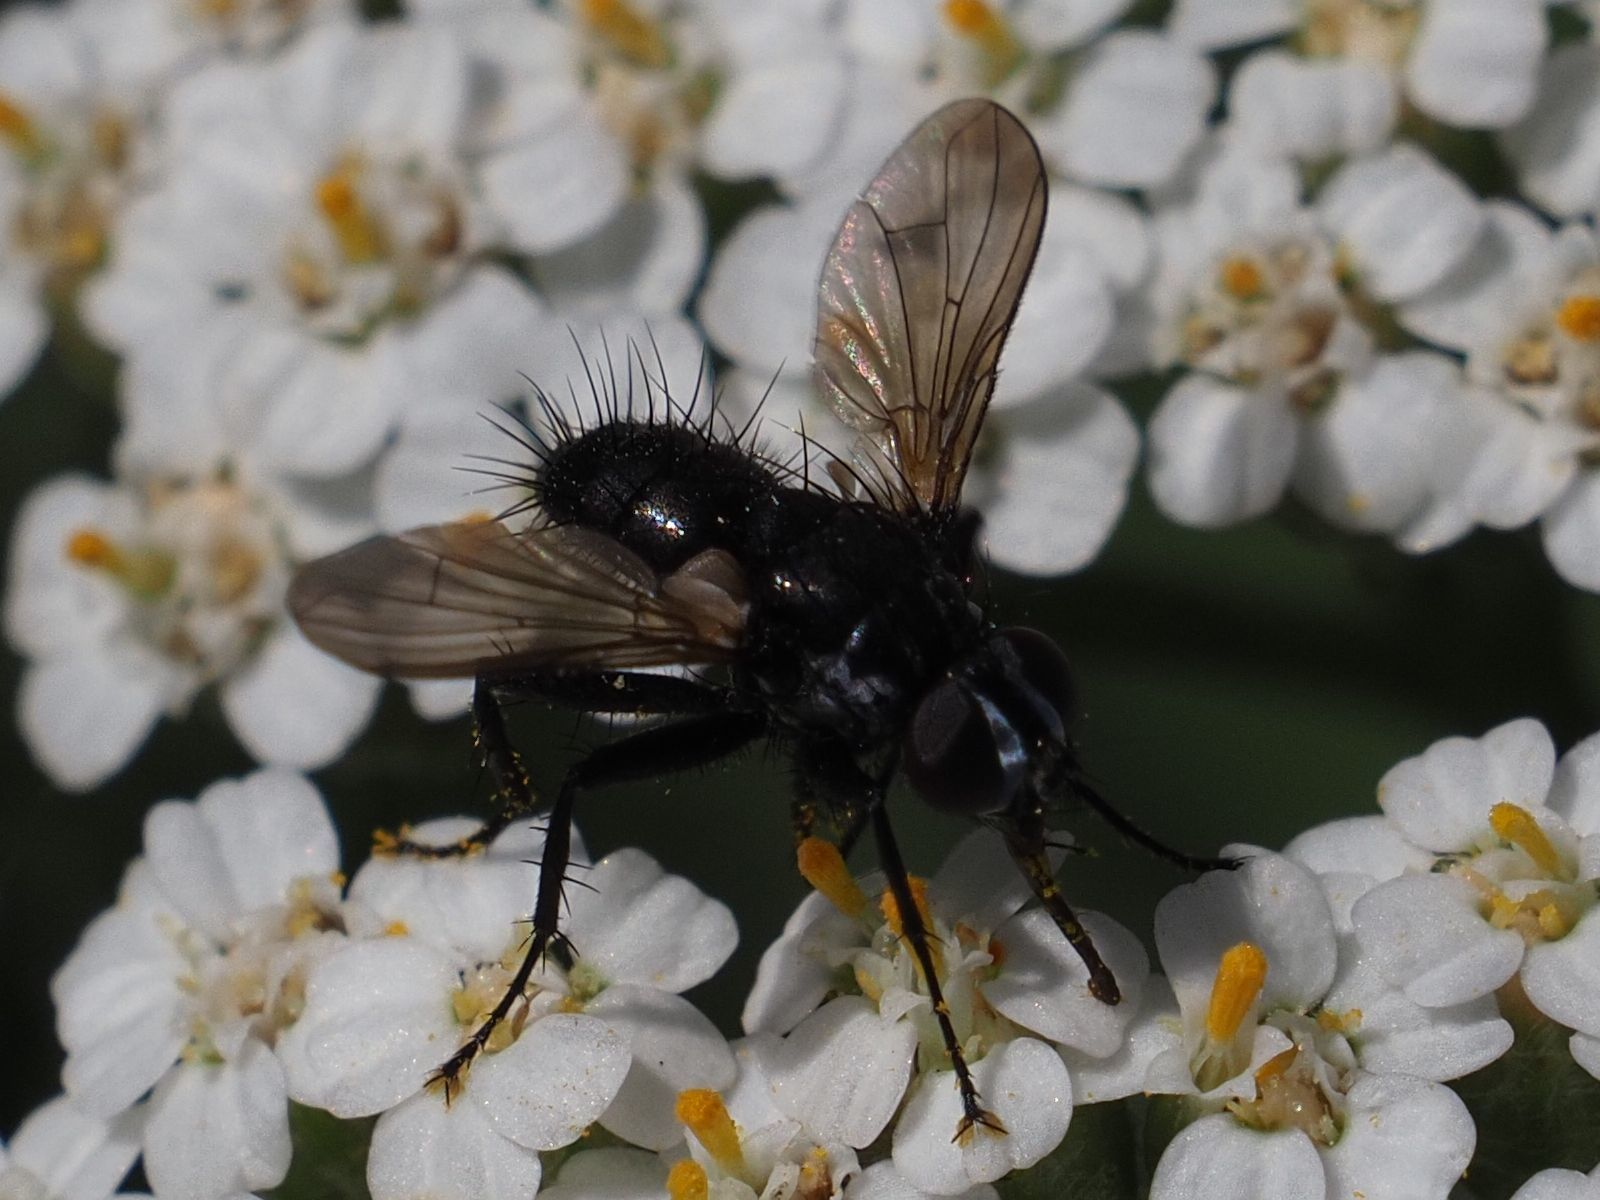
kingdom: Animalia
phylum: Arthropoda
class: Insecta
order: Diptera
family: Tachinidae
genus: Phania
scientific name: Phania funesta
